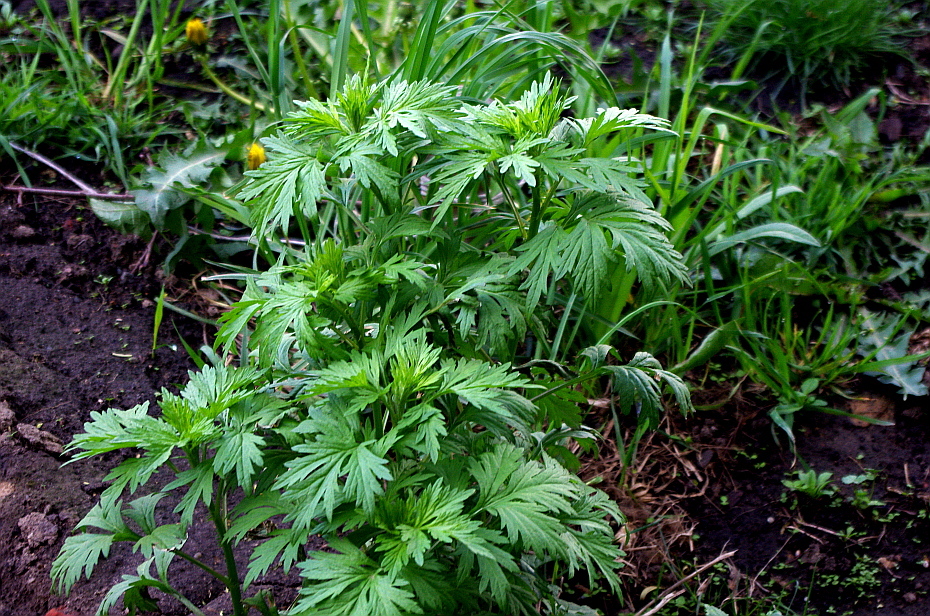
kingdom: Plantae
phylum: Tracheophyta
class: Magnoliopsida
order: Asterales
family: Asteraceae
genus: Artemisia
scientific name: Artemisia vulgaris
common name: Mugwort
